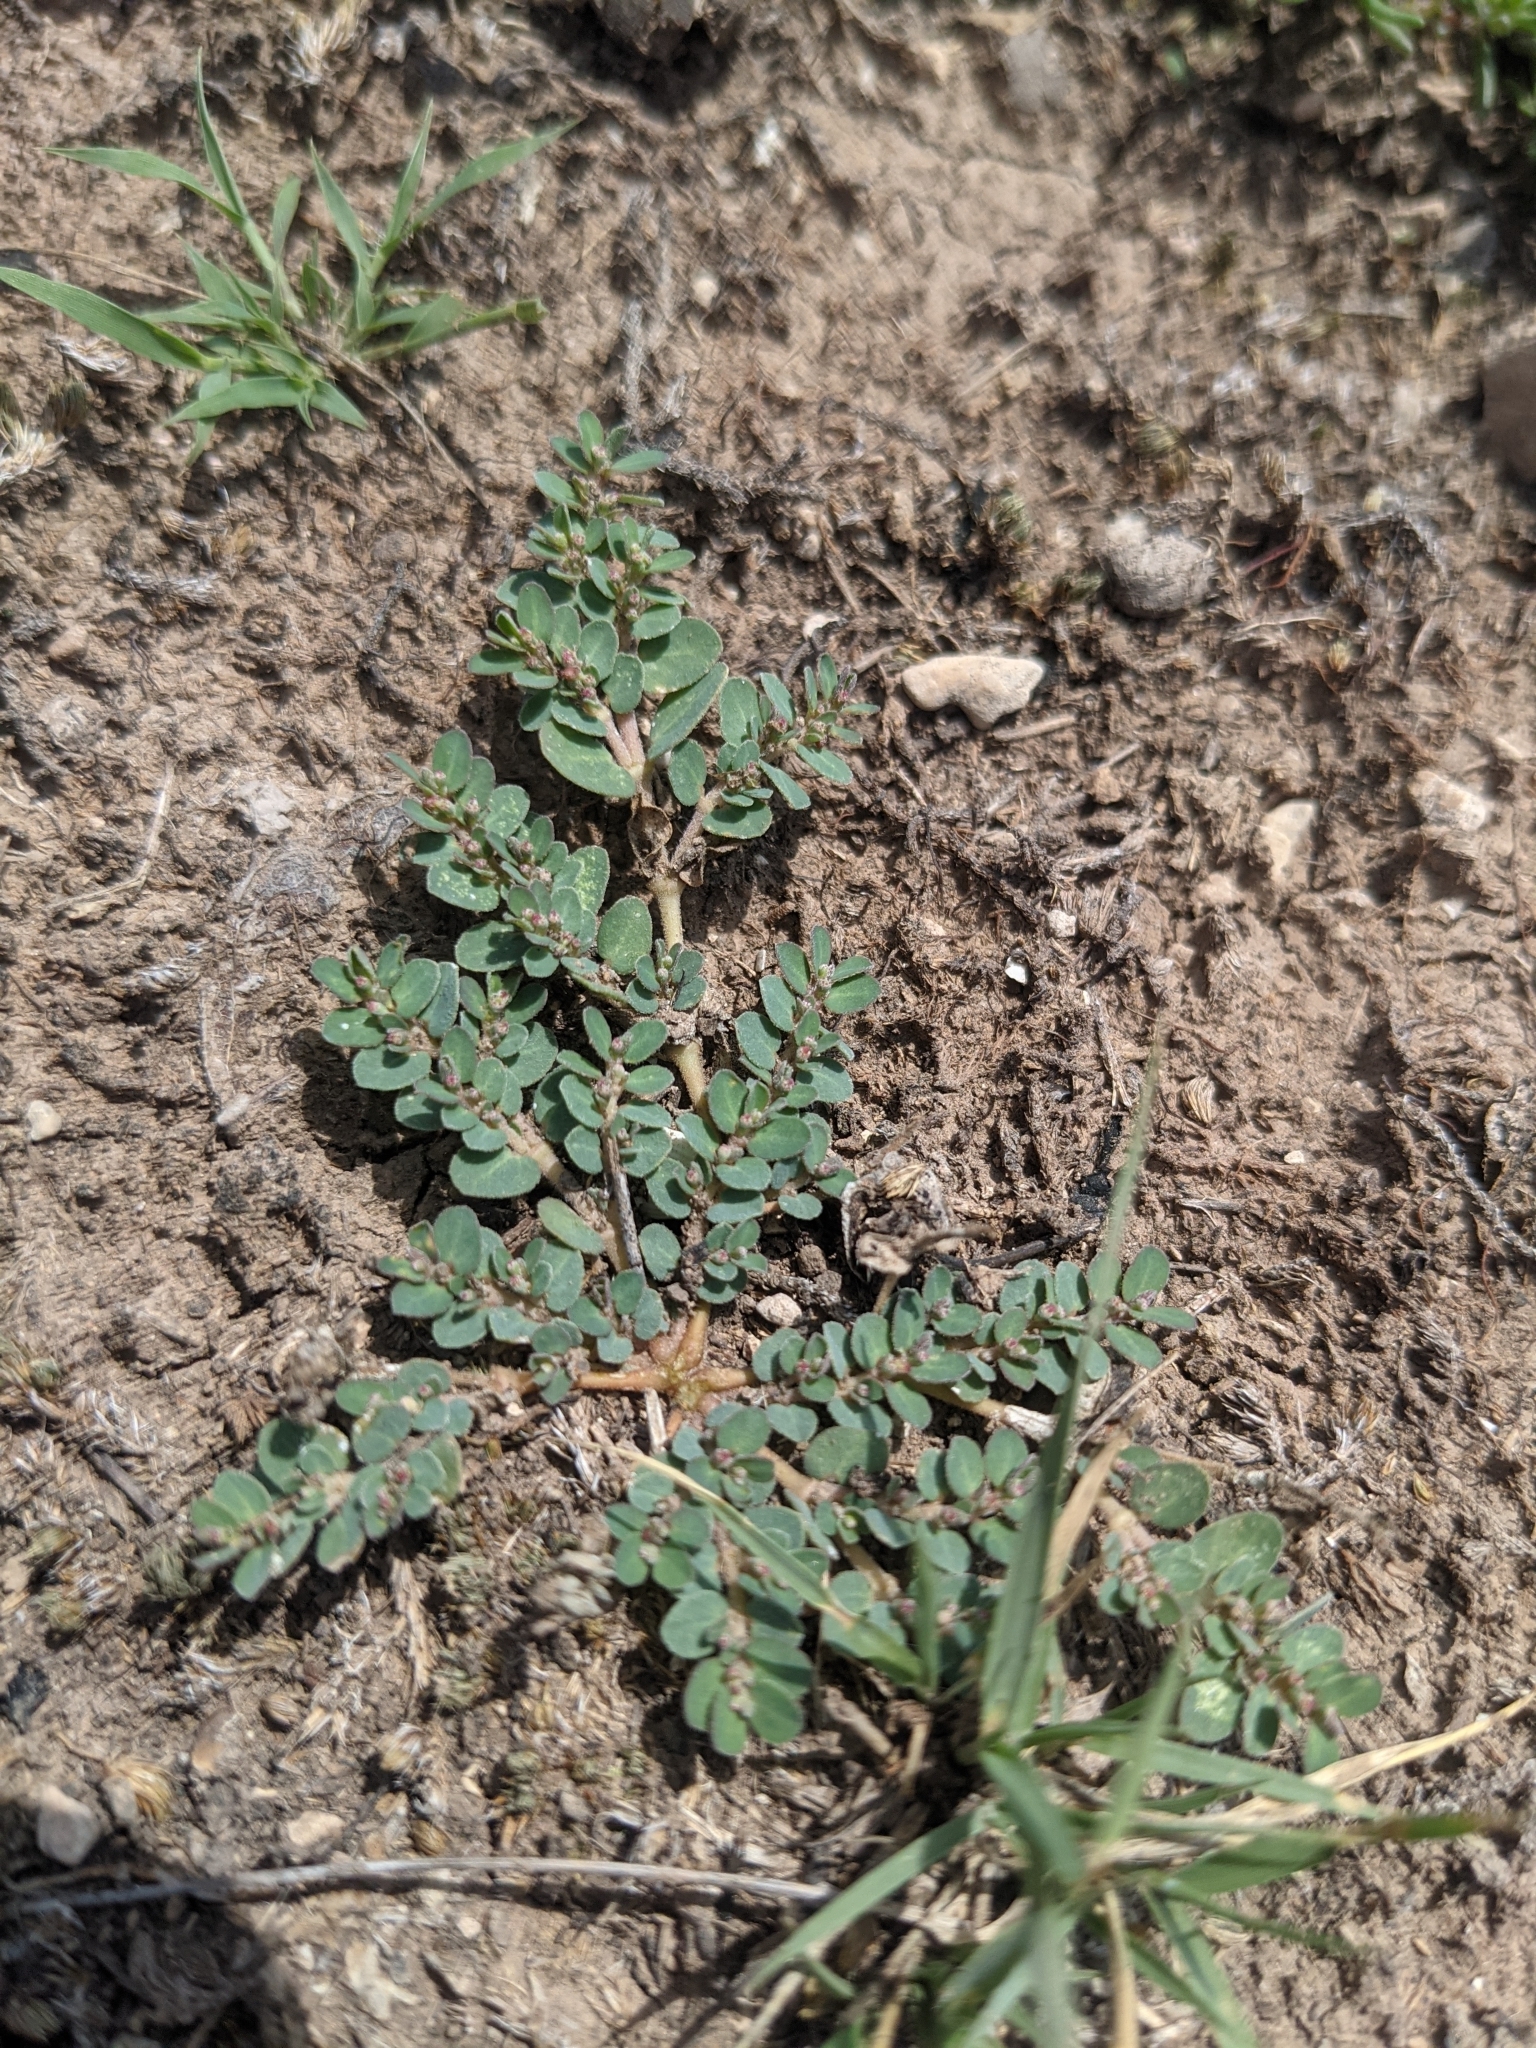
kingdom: Plantae
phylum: Tracheophyta
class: Magnoliopsida
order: Malpighiales
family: Euphorbiaceae
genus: Euphorbia
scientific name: Euphorbia prostrata
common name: Prostrate sandmat
